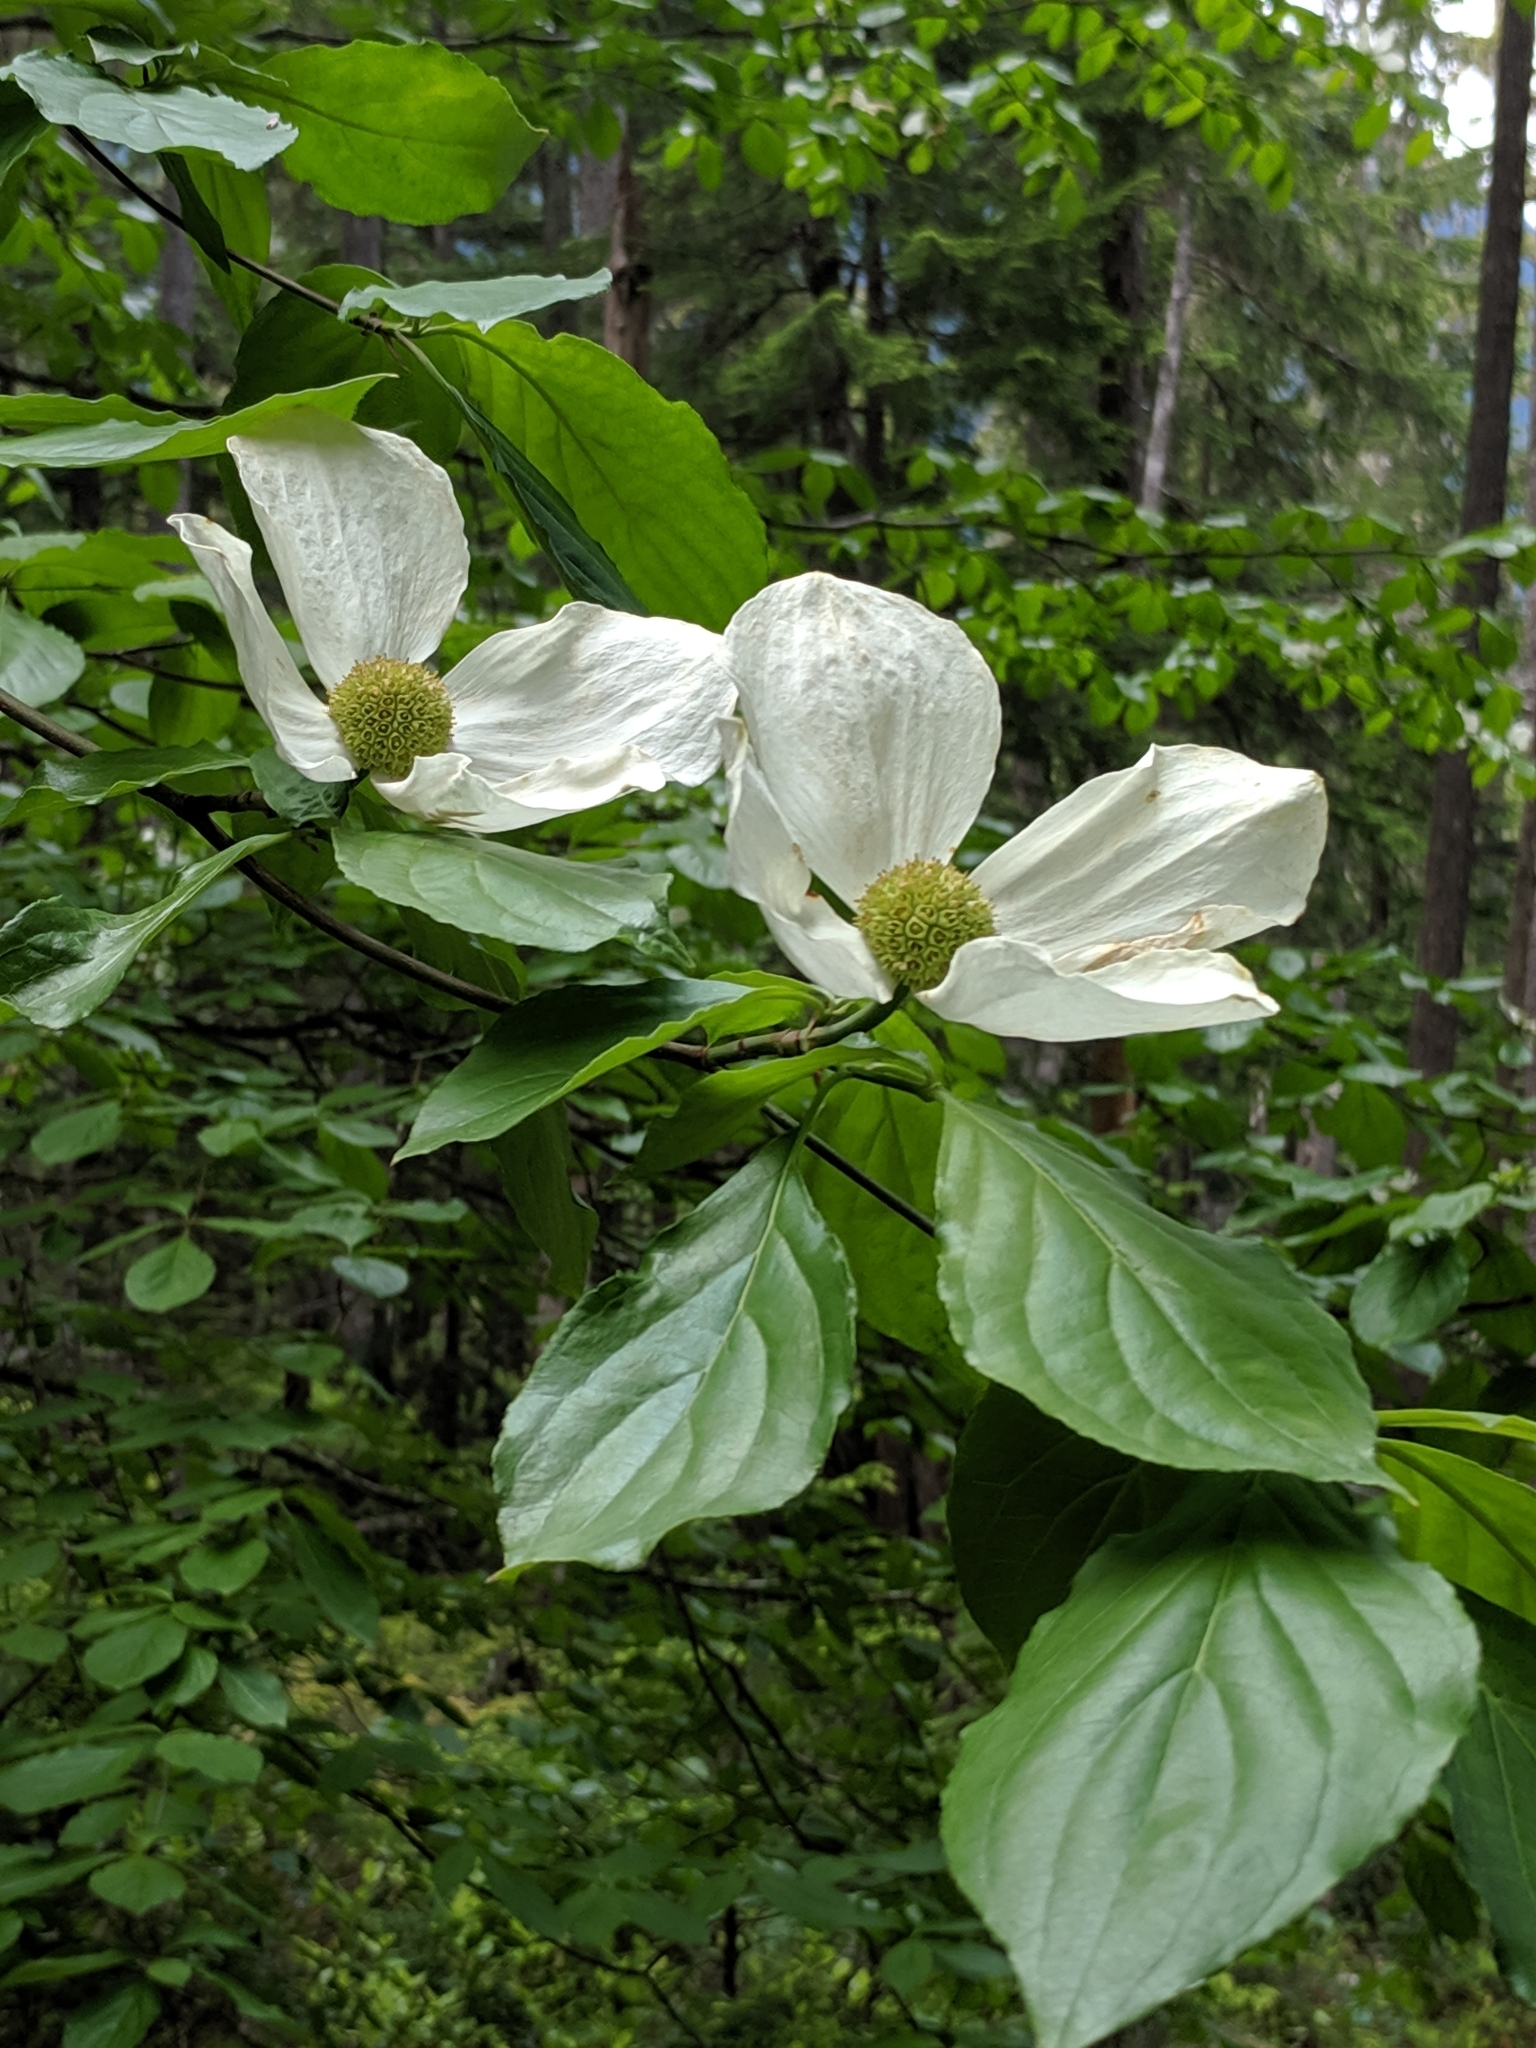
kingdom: Plantae
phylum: Tracheophyta
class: Magnoliopsida
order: Cornales
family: Cornaceae
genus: Cornus
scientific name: Cornus nuttallii
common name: Pacific dogwood
